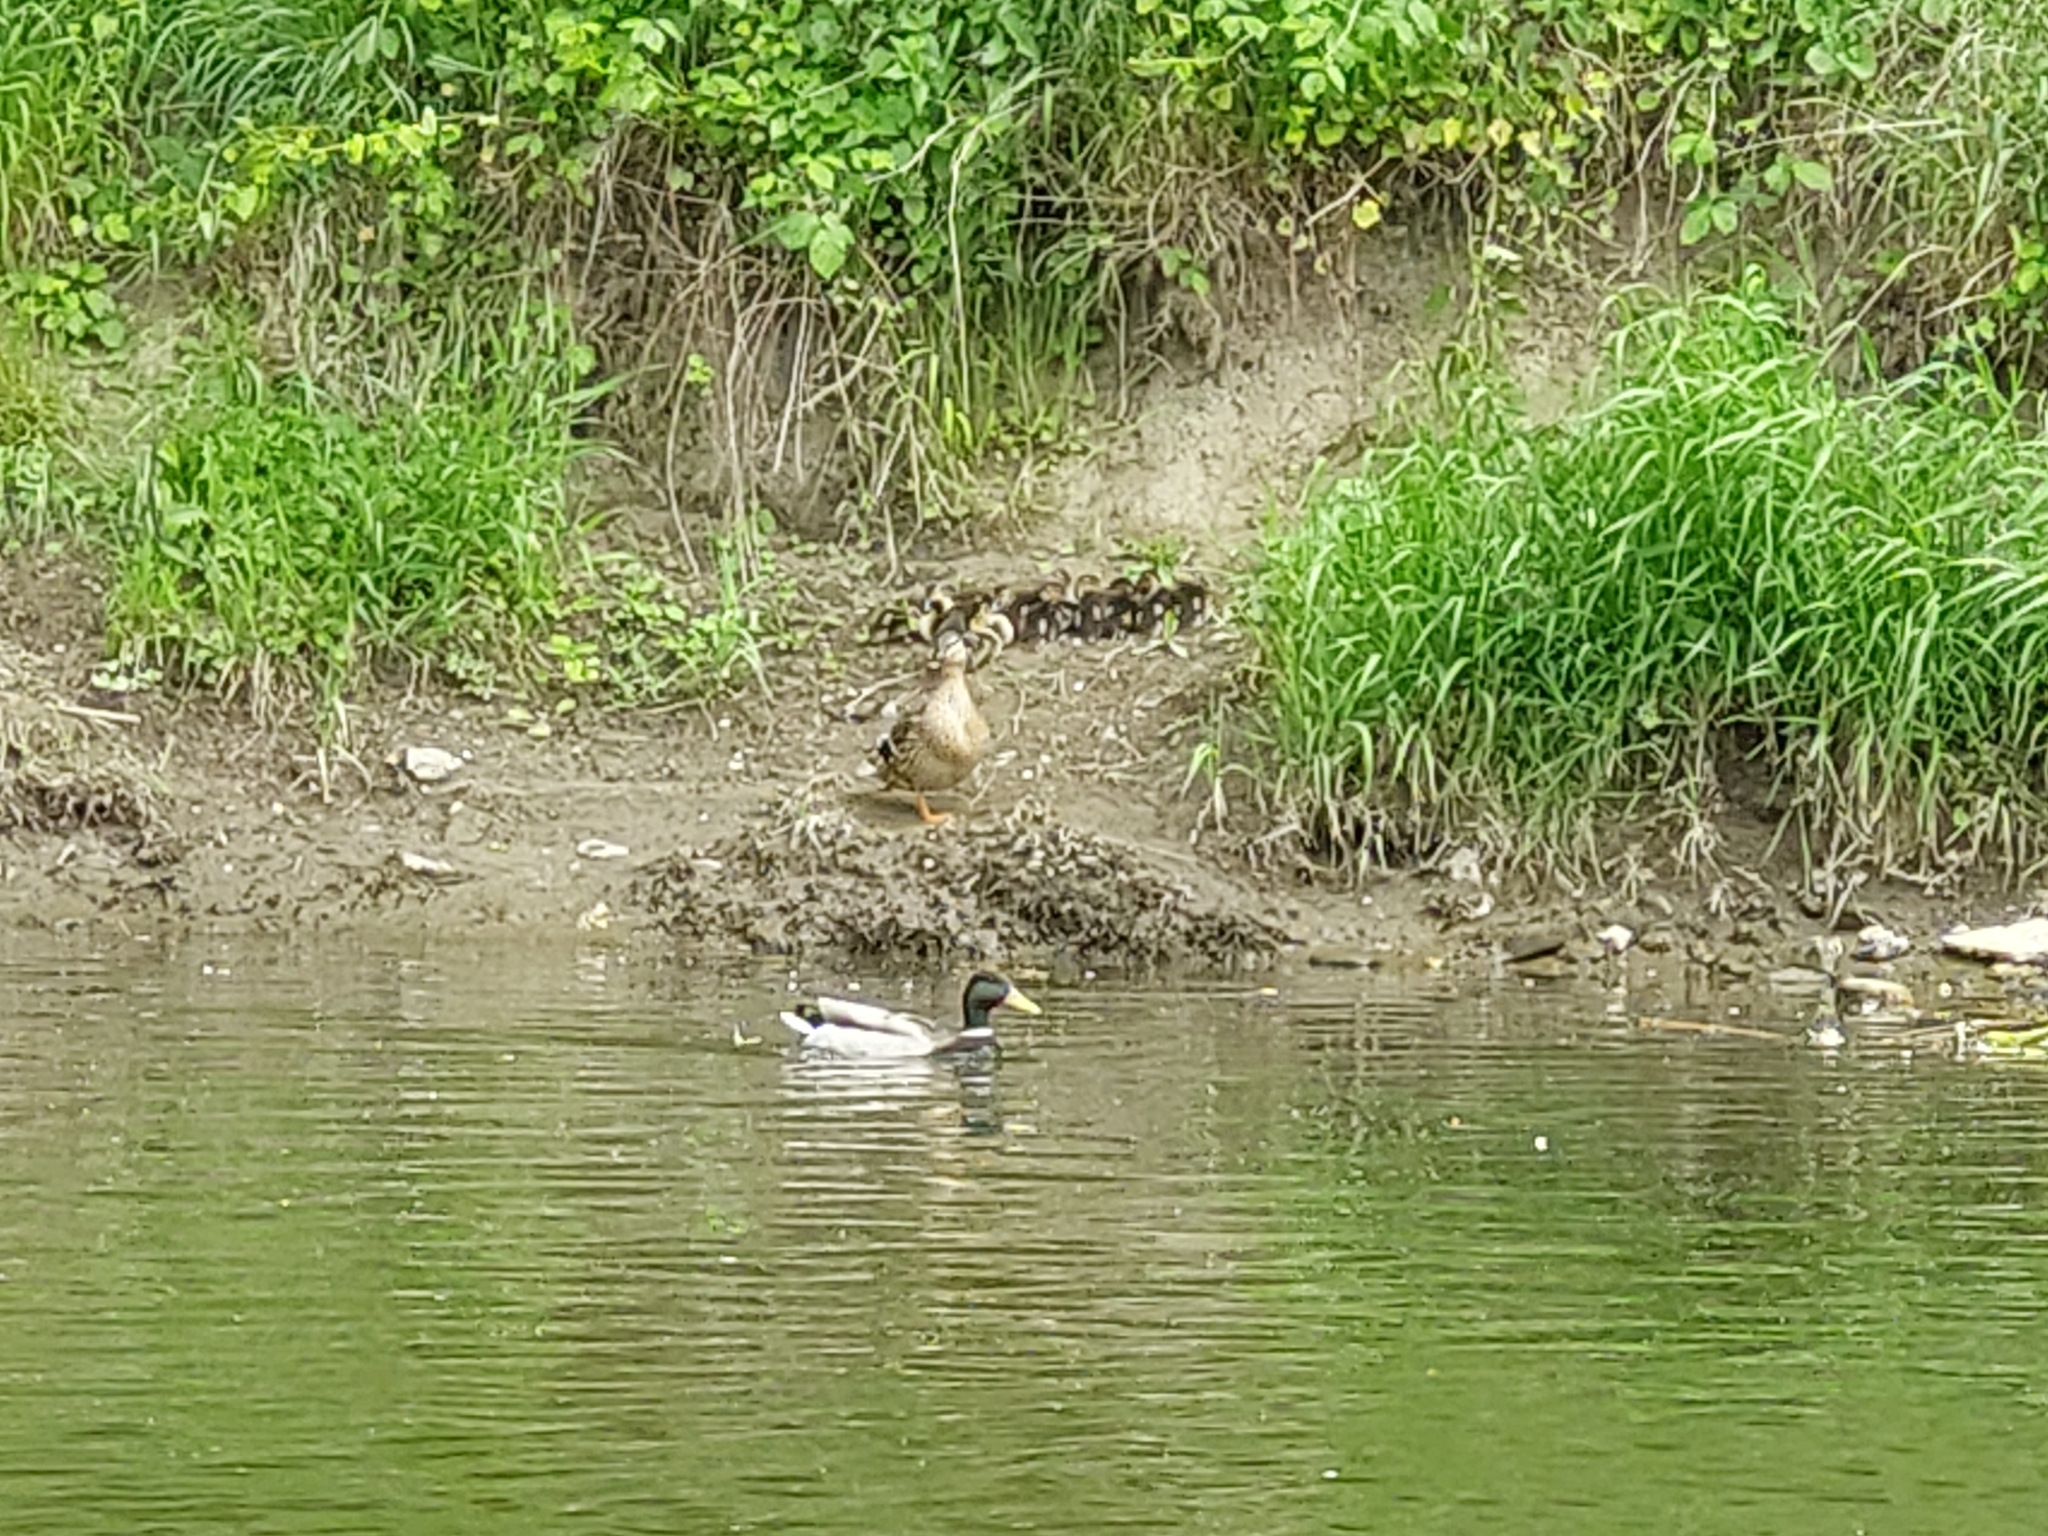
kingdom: Animalia
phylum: Chordata
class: Aves
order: Anseriformes
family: Anatidae
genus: Anas
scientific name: Anas platyrhynchos
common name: Mallard
